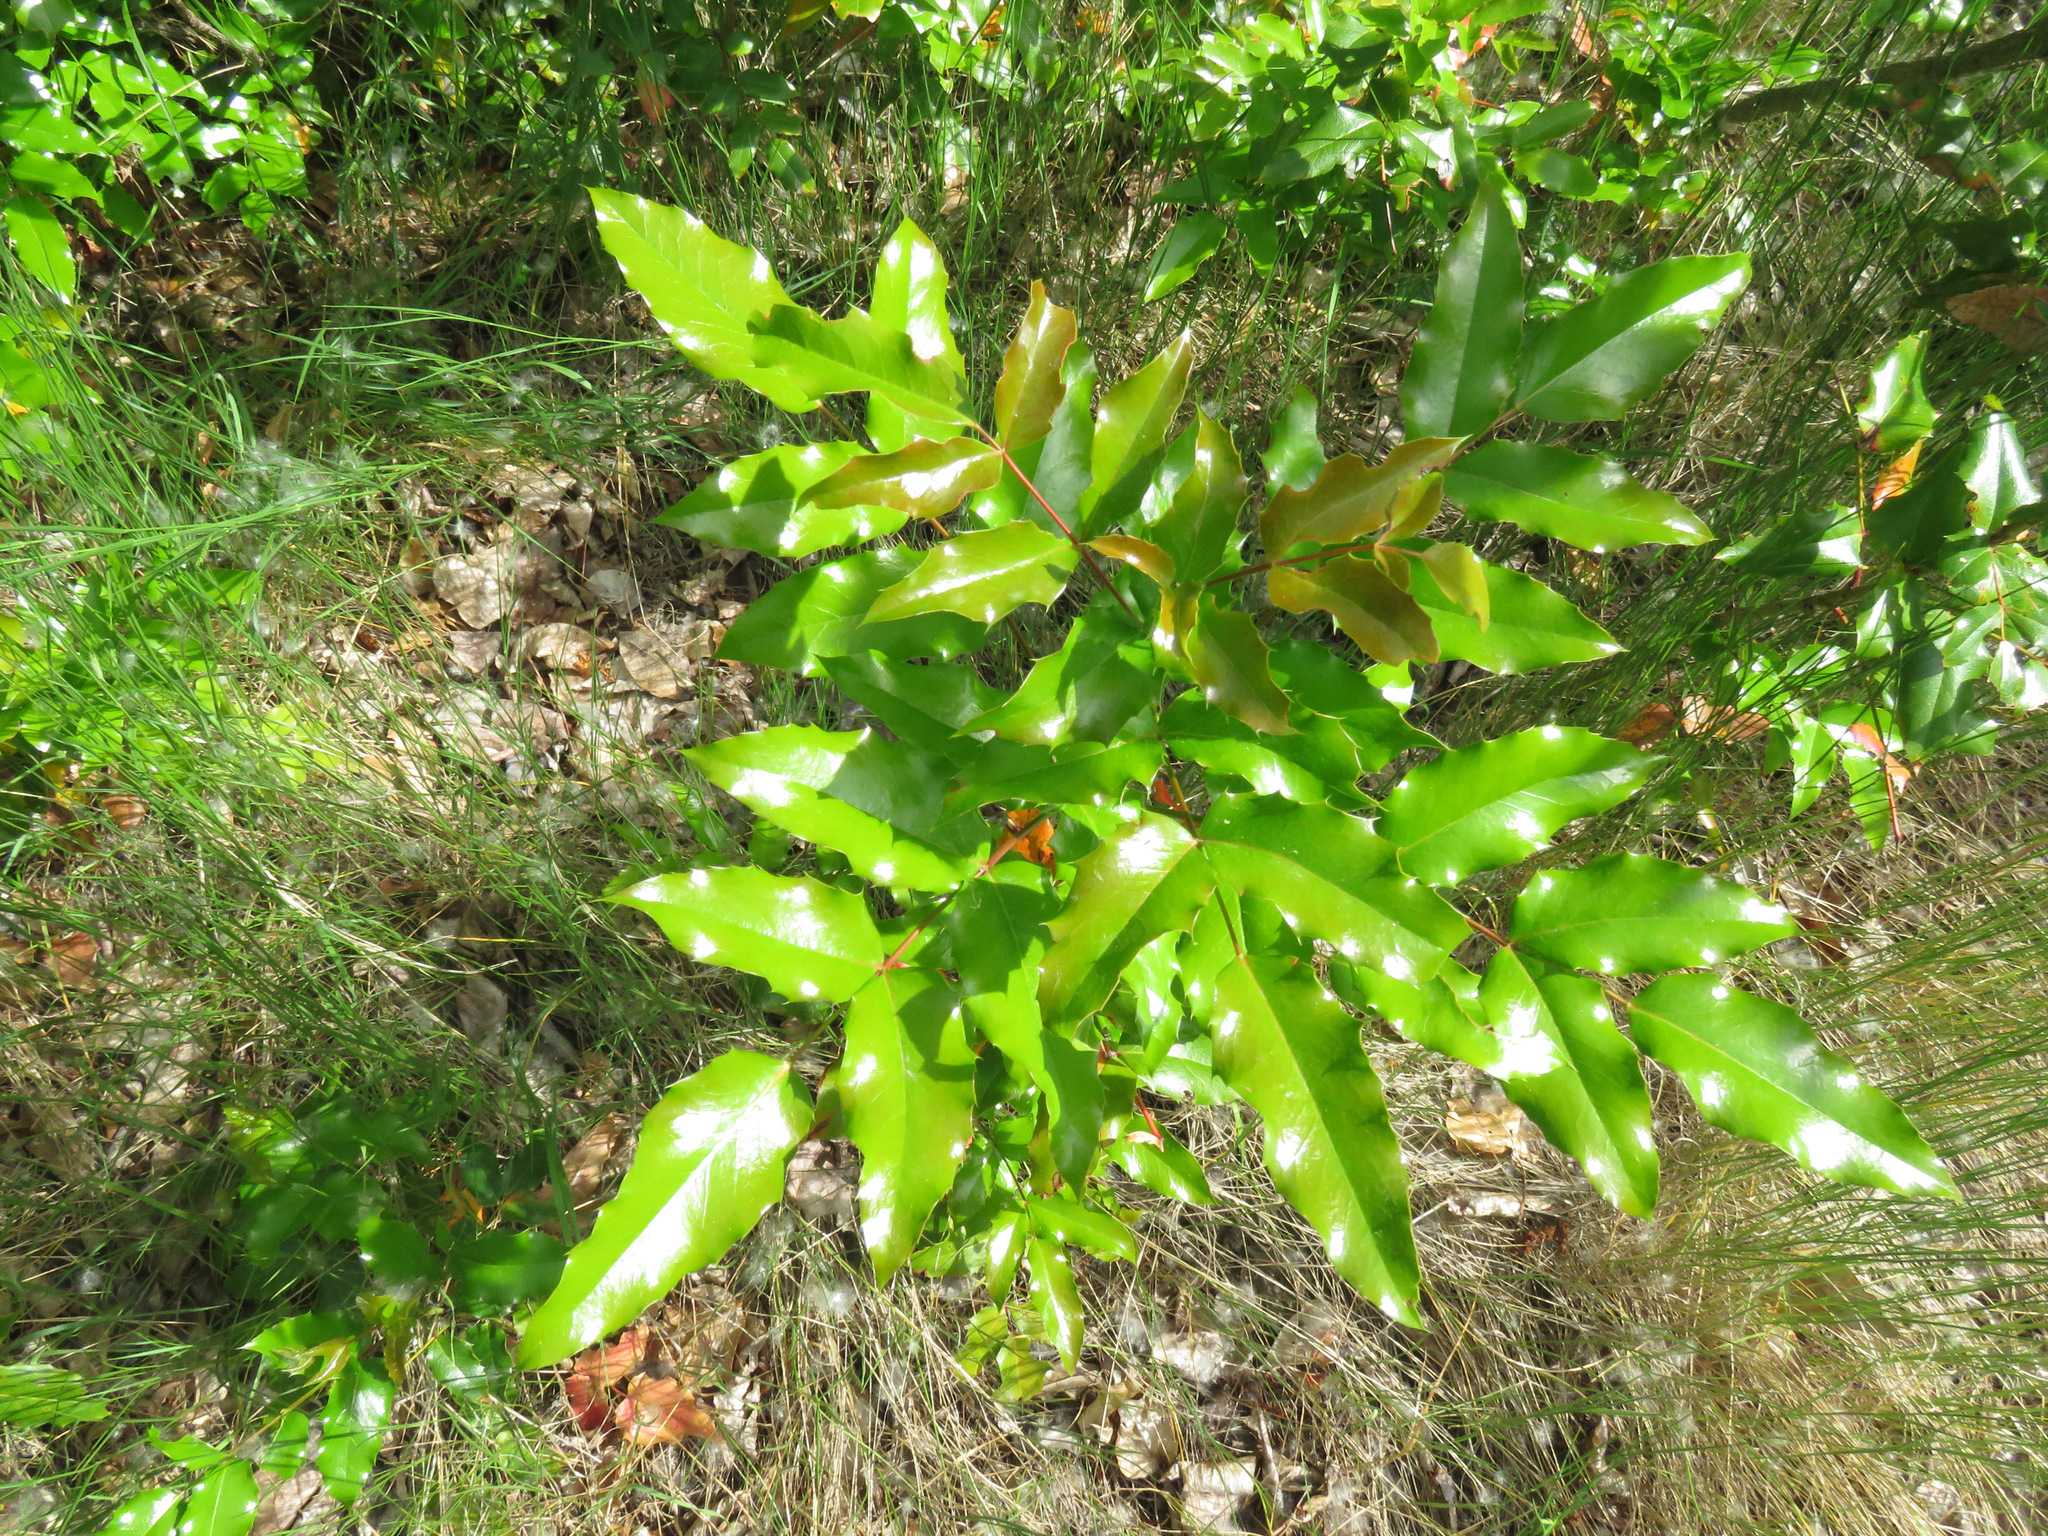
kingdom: Plantae
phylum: Tracheophyta
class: Magnoliopsida
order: Ranunculales
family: Berberidaceae
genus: Mahonia
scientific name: Mahonia aquifolium
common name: Oregon-grape
